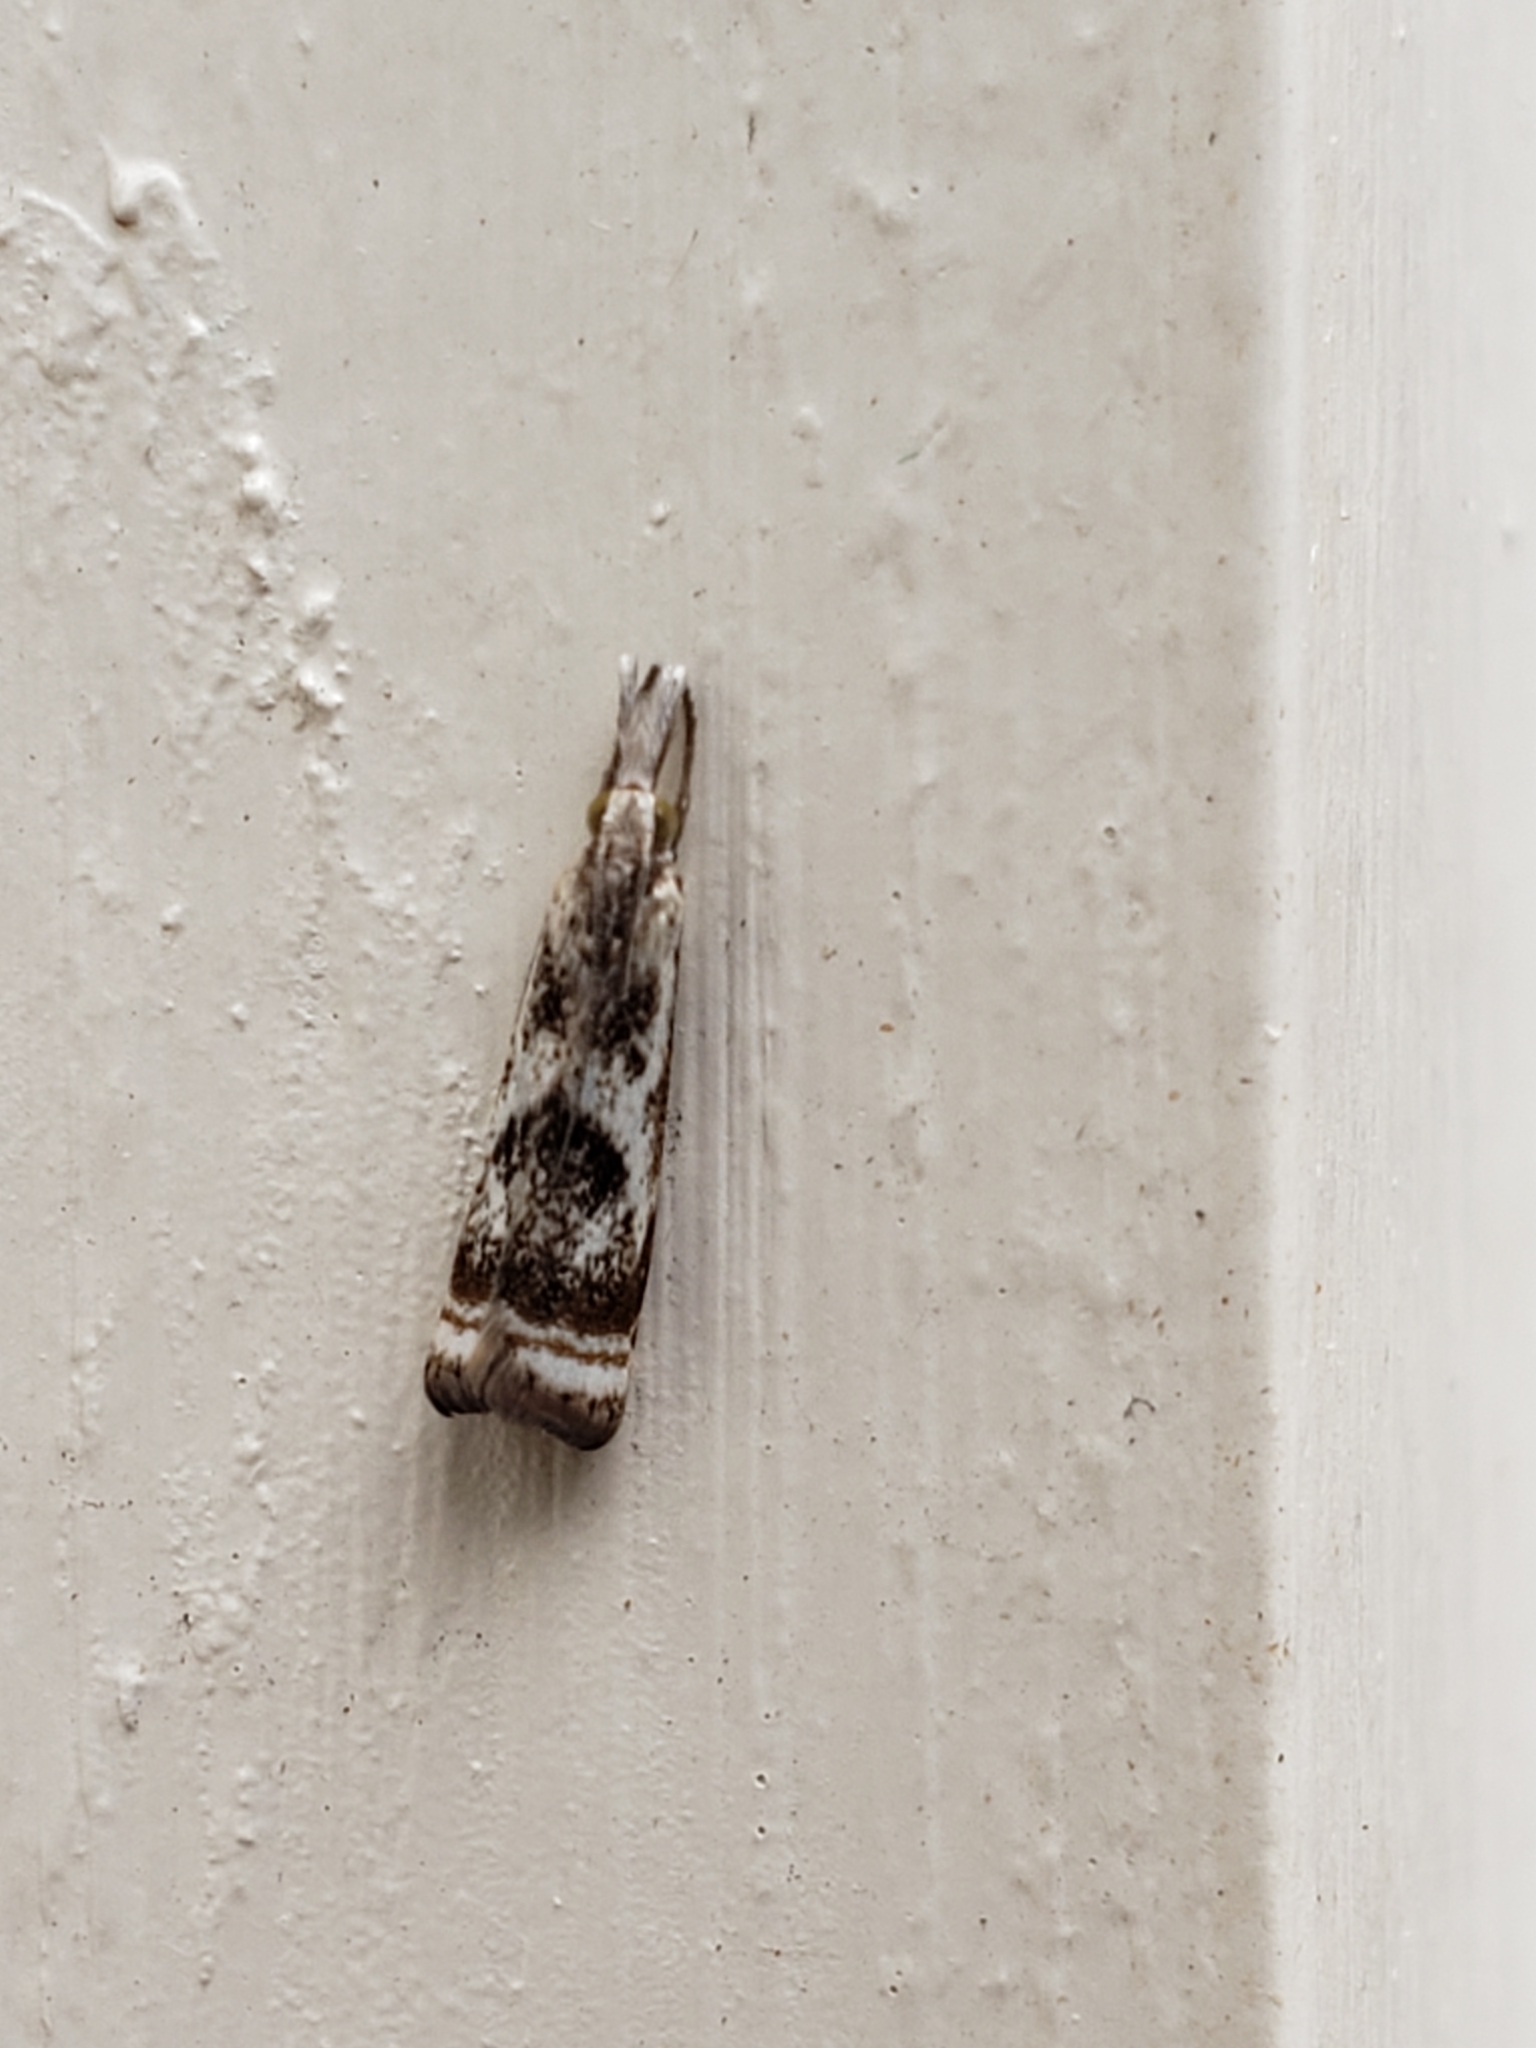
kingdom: Animalia
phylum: Arthropoda
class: Insecta
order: Lepidoptera
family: Crambidae
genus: Microcrambus
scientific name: Microcrambus elegans
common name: Elegant grass-veneer
